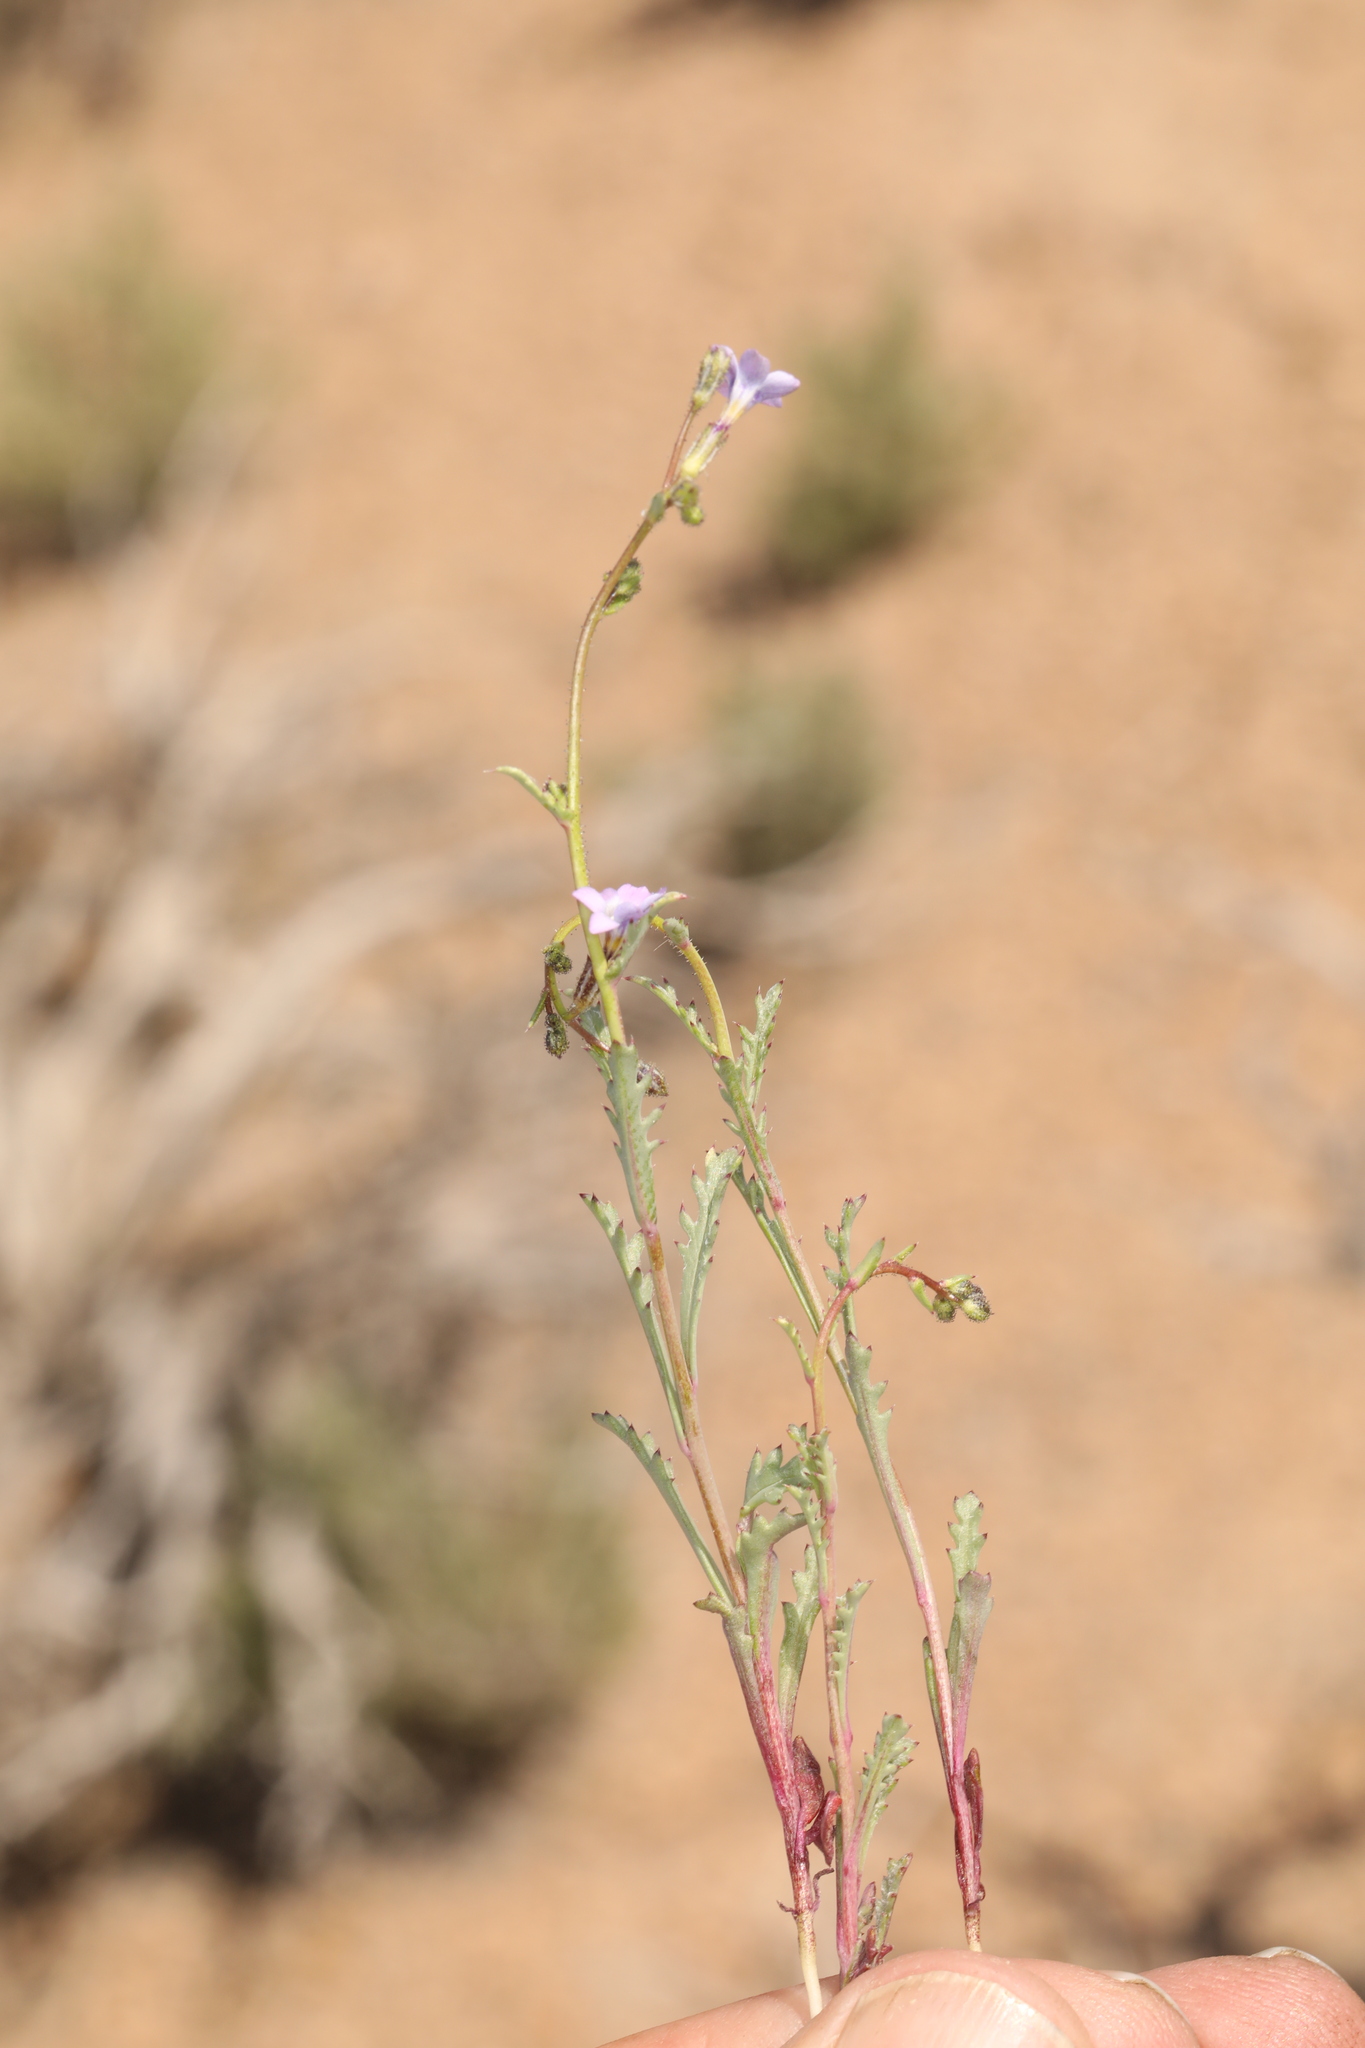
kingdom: Plantae
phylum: Tracheophyta
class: Magnoliopsida
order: Ericales
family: Polemoniaceae
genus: Gilia
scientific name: Gilia sinuata
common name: Rosy gilia
